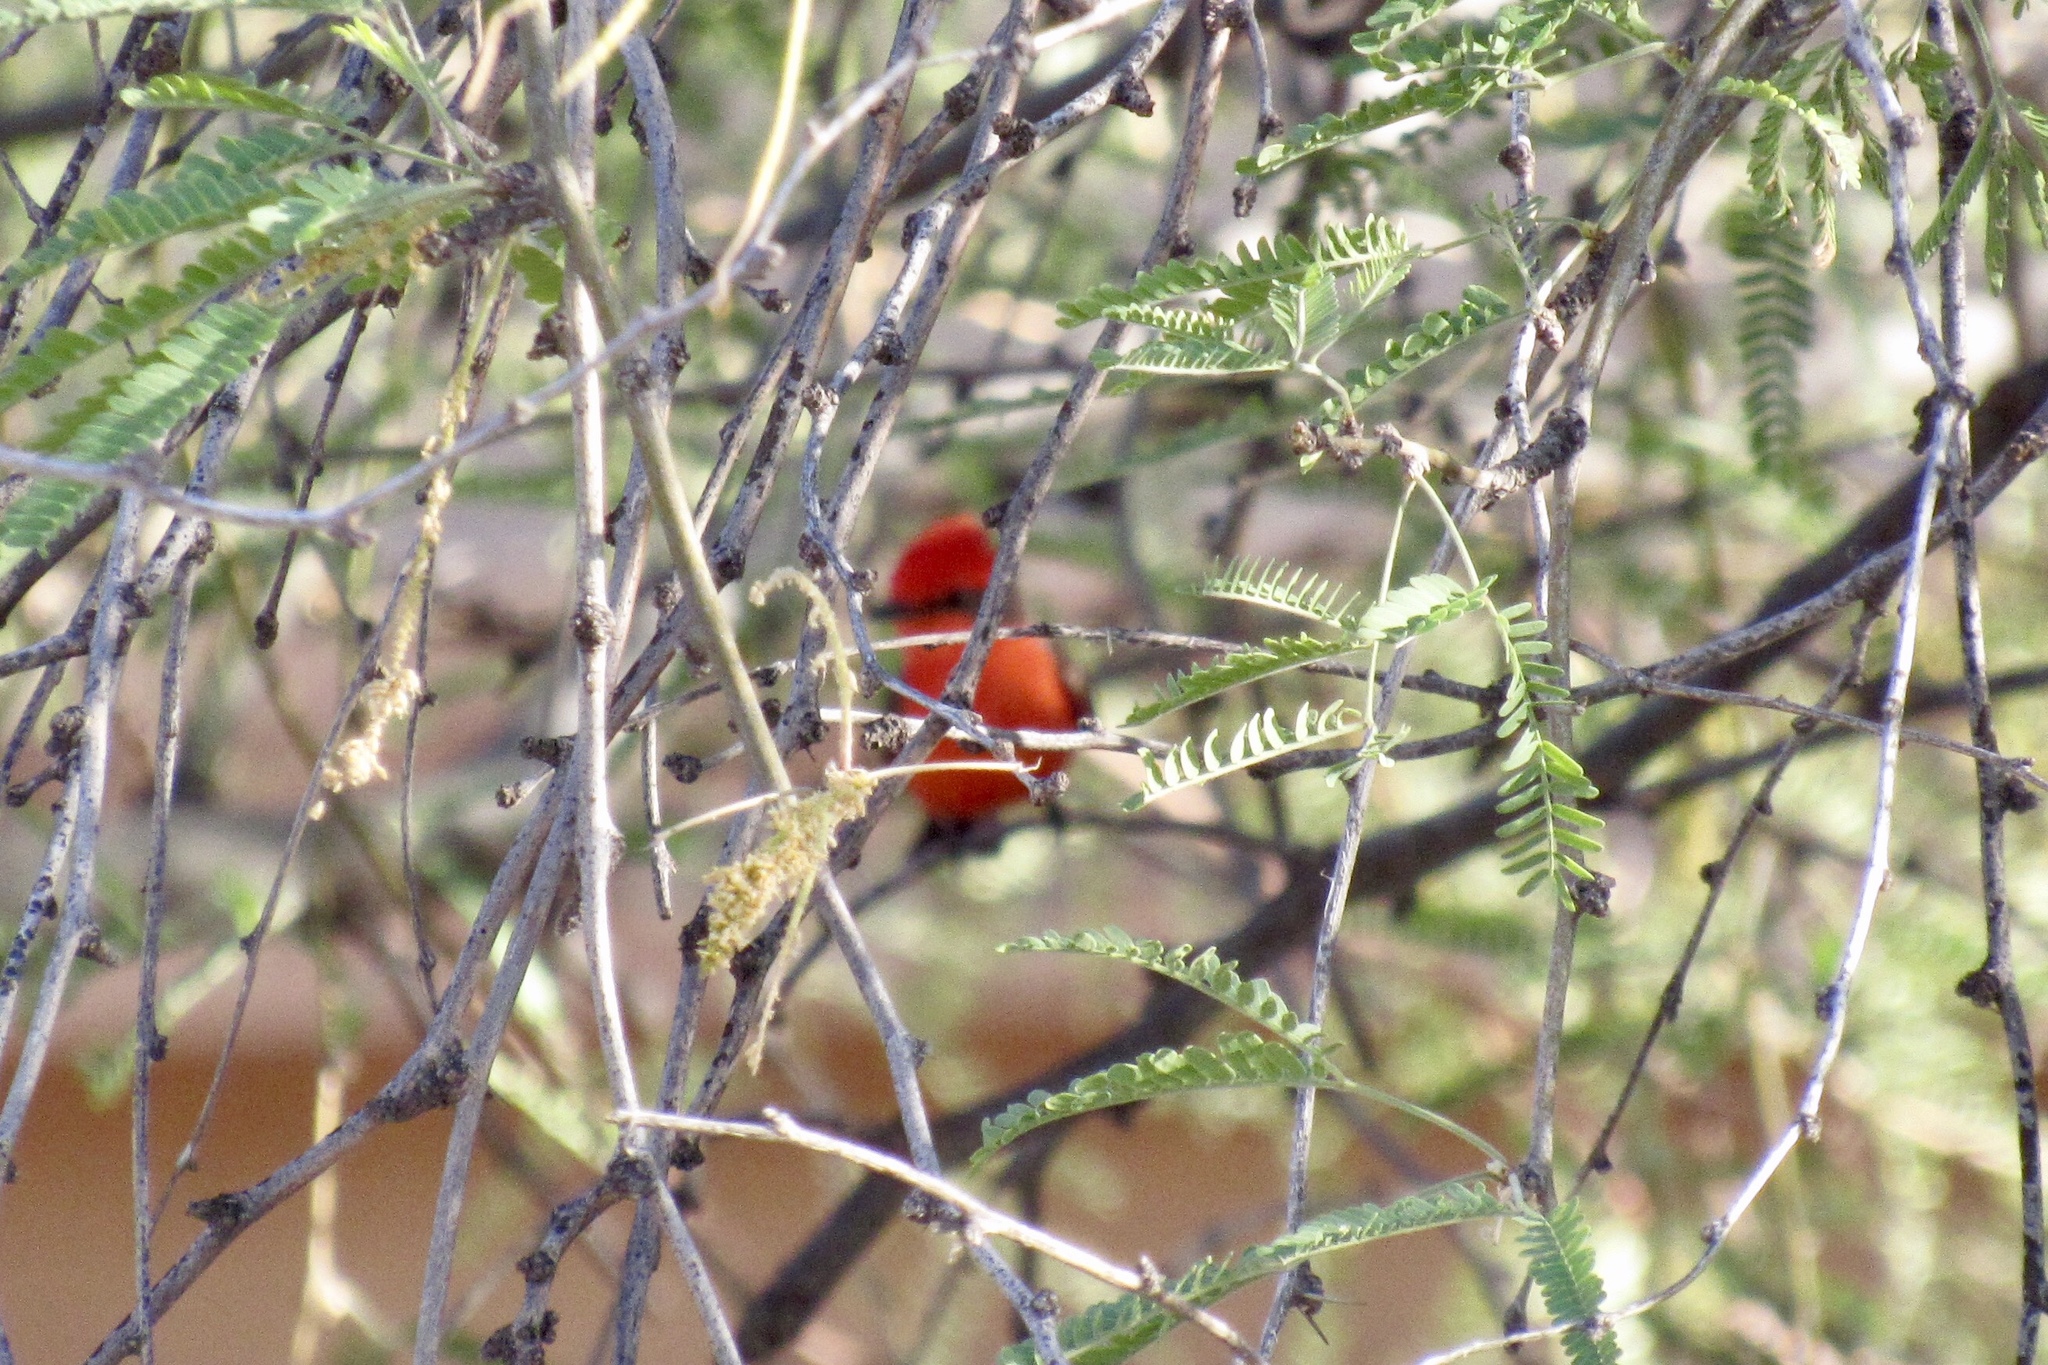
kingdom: Animalia
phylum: Chordata
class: Aves
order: Passeriformes
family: Tyrannidae
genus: Pyrocephalus
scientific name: Pyrocephalus rubinus
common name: Vermilion flycatcher
